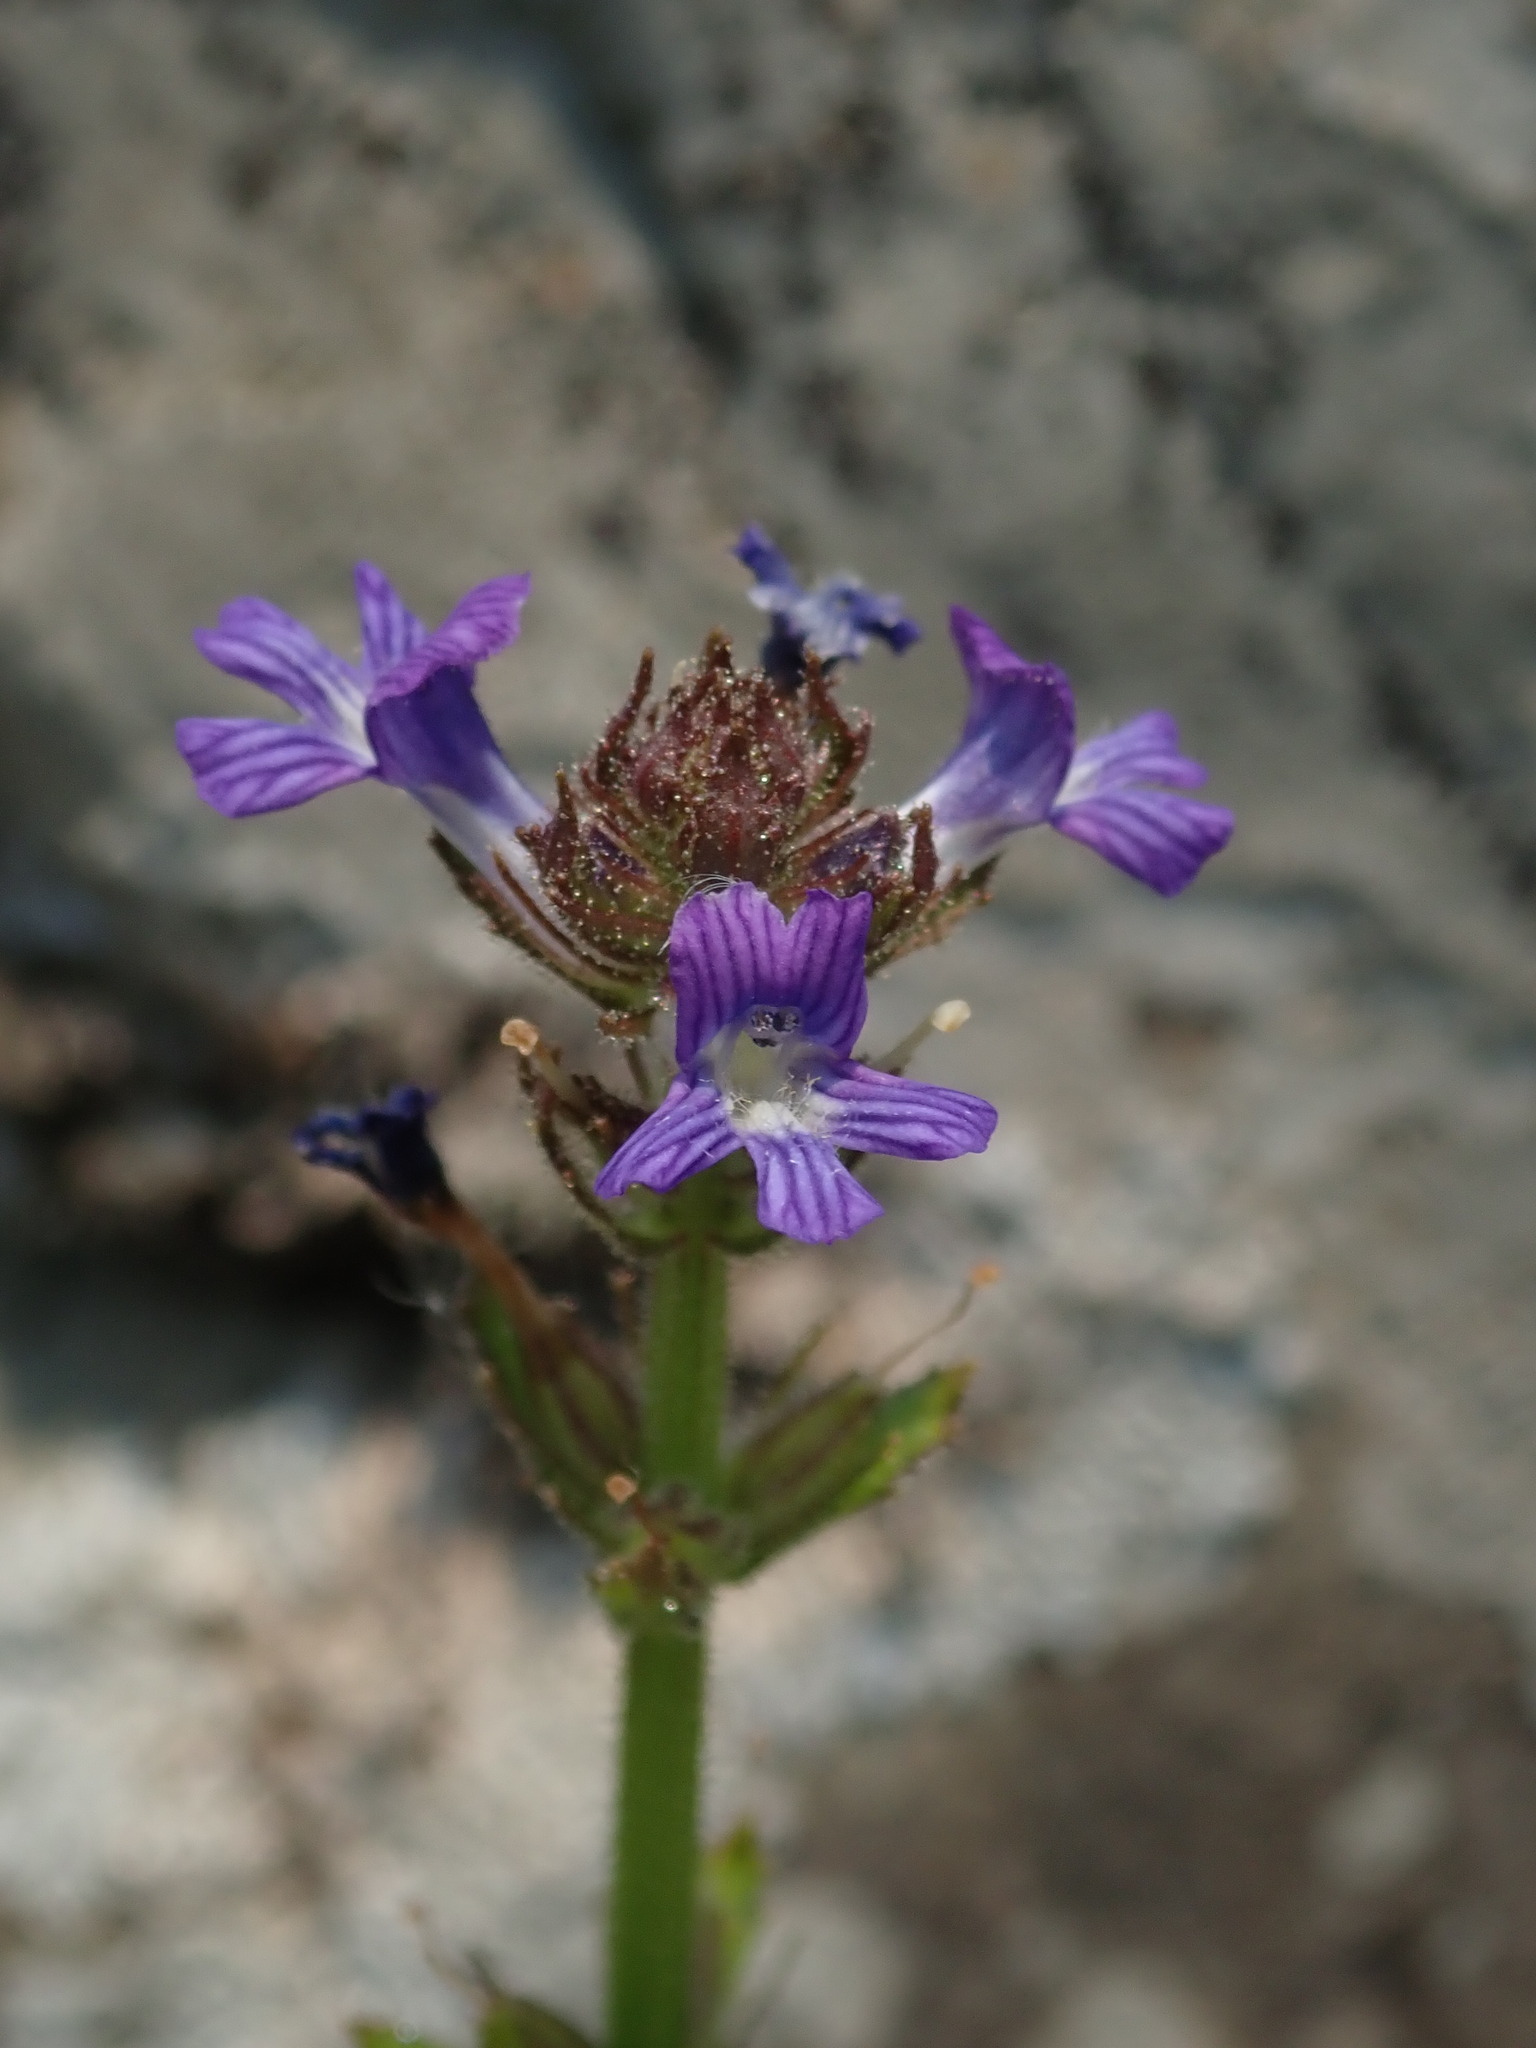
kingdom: Plantae
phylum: Tracheophyta
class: Magnoliopsida
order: Lamiales
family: Plantaginaceae
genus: Stemodia
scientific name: Stemodia stricta
